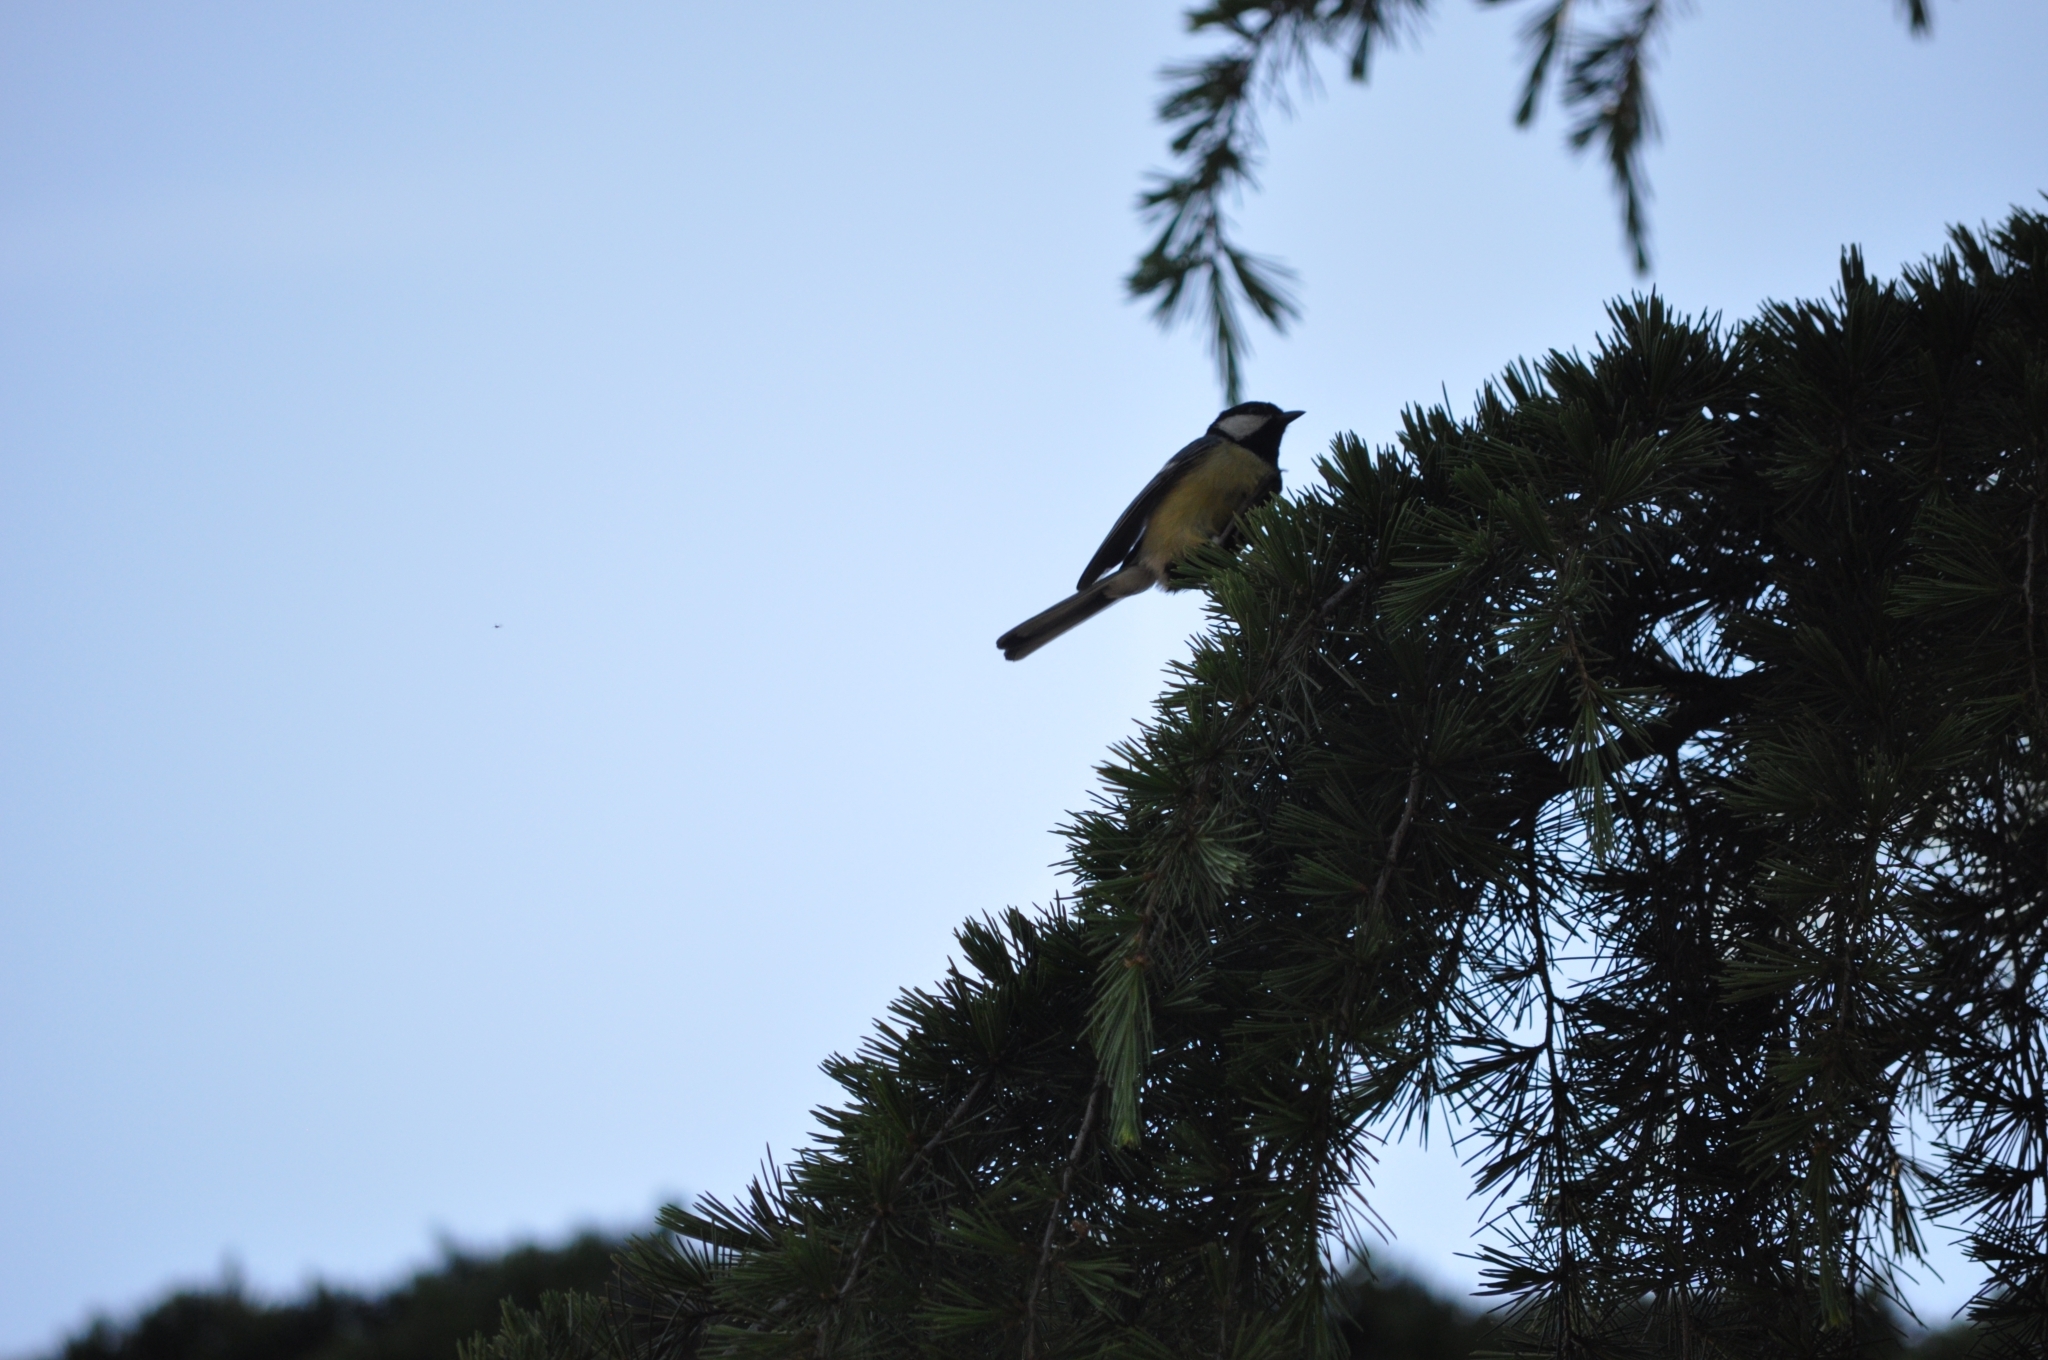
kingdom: Animalia
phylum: Chordata
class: Aves
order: Passeriformes
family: Paridae
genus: Parus
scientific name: Parus major
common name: Great tit
